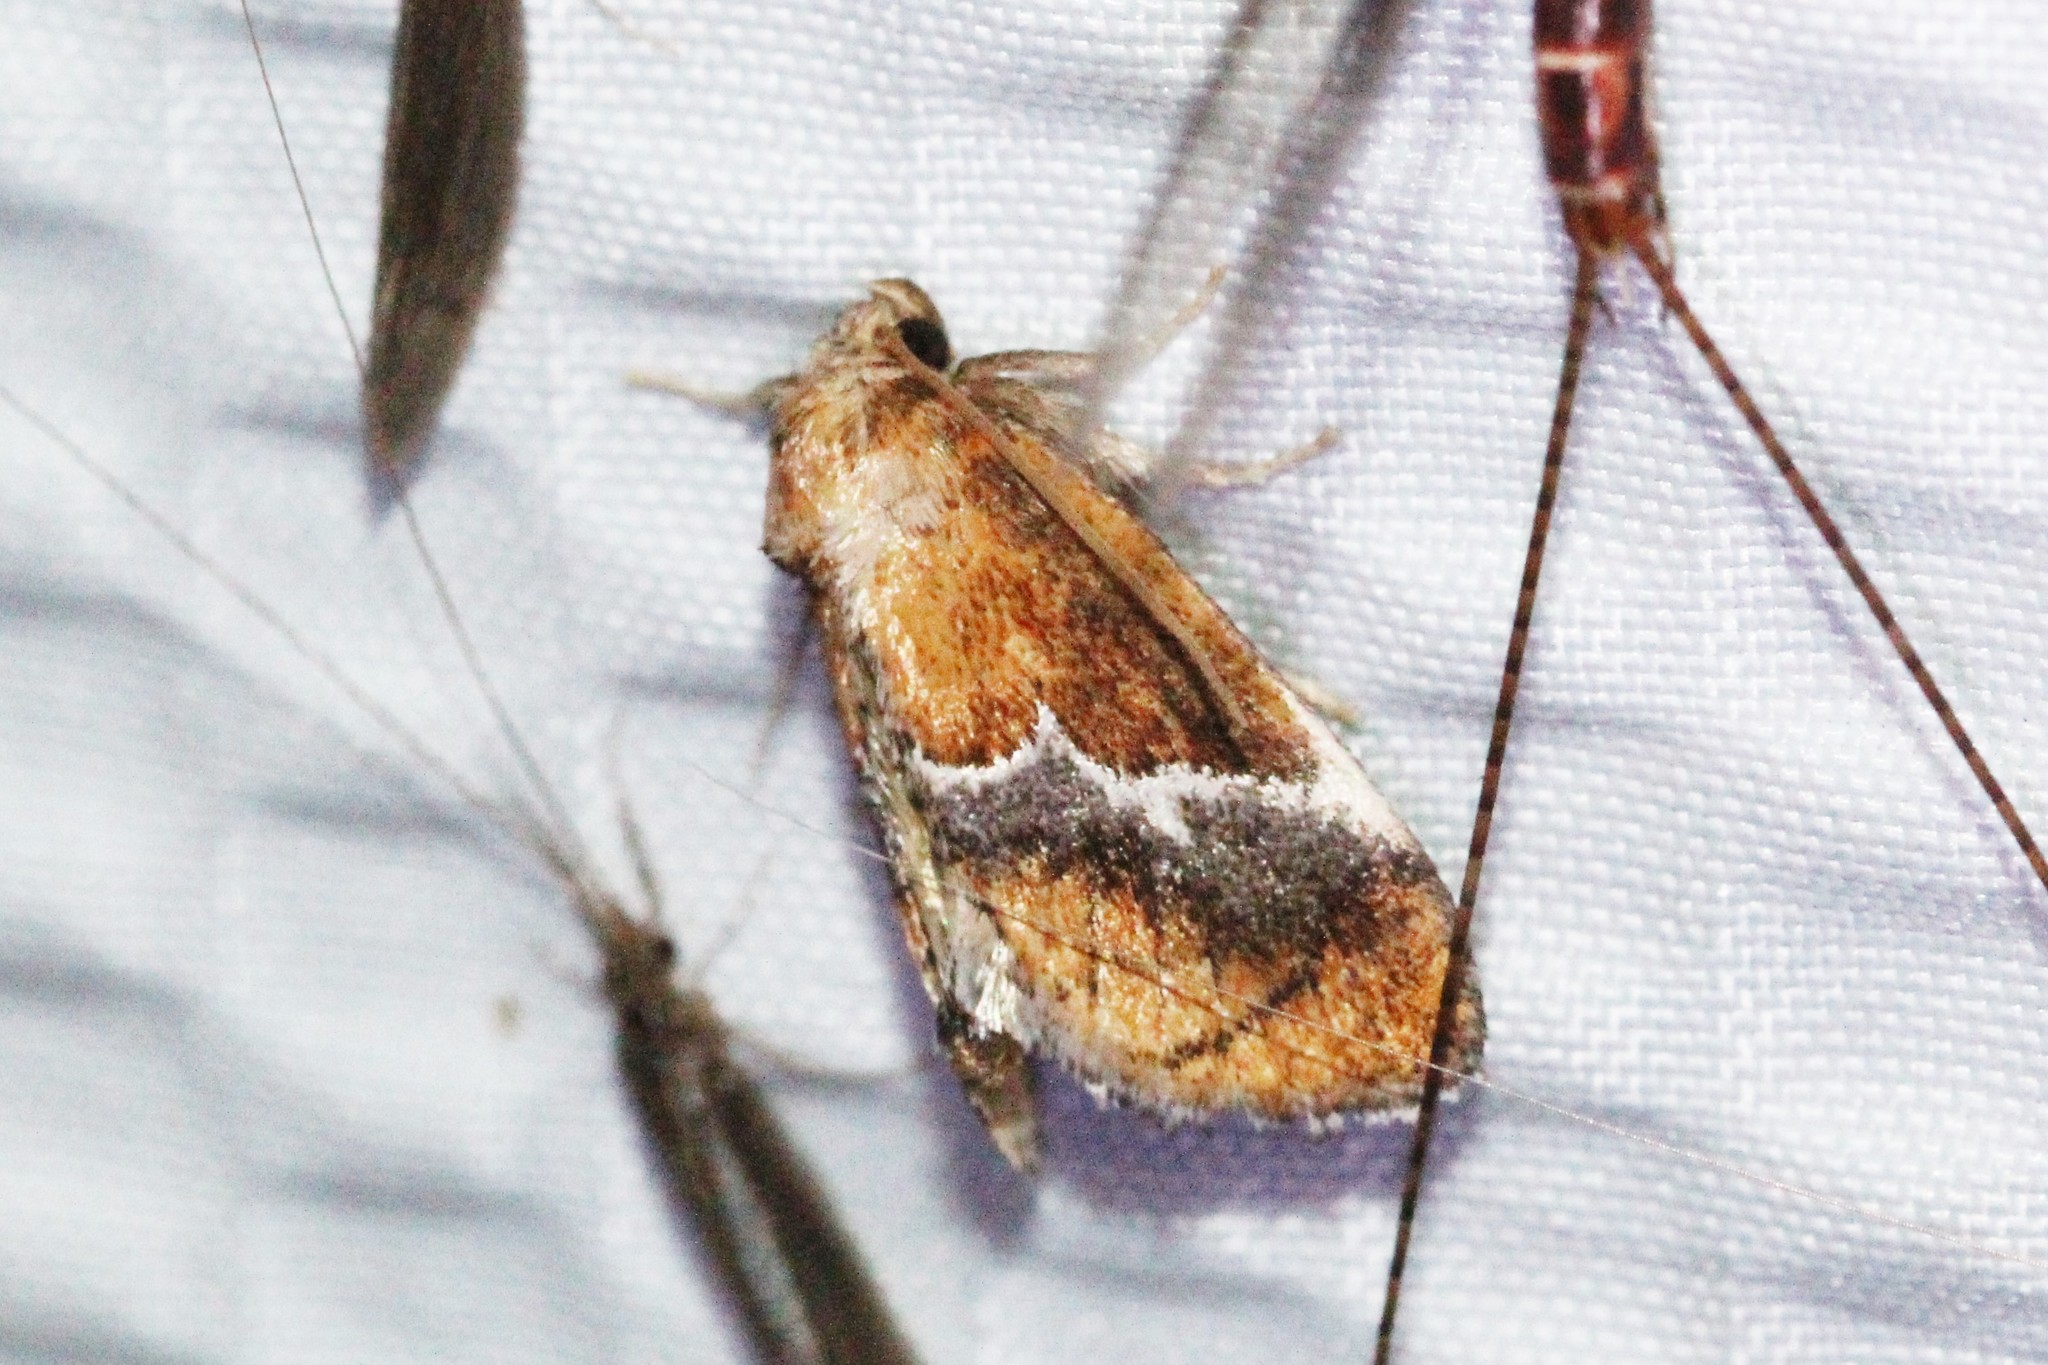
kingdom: Animalia
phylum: Arthropoda
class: Insecta
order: Lepidoptera
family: Limacodidae
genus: Lithacodes
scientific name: Lithacodes fasciola
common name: Yellow-shouldered slug moth
